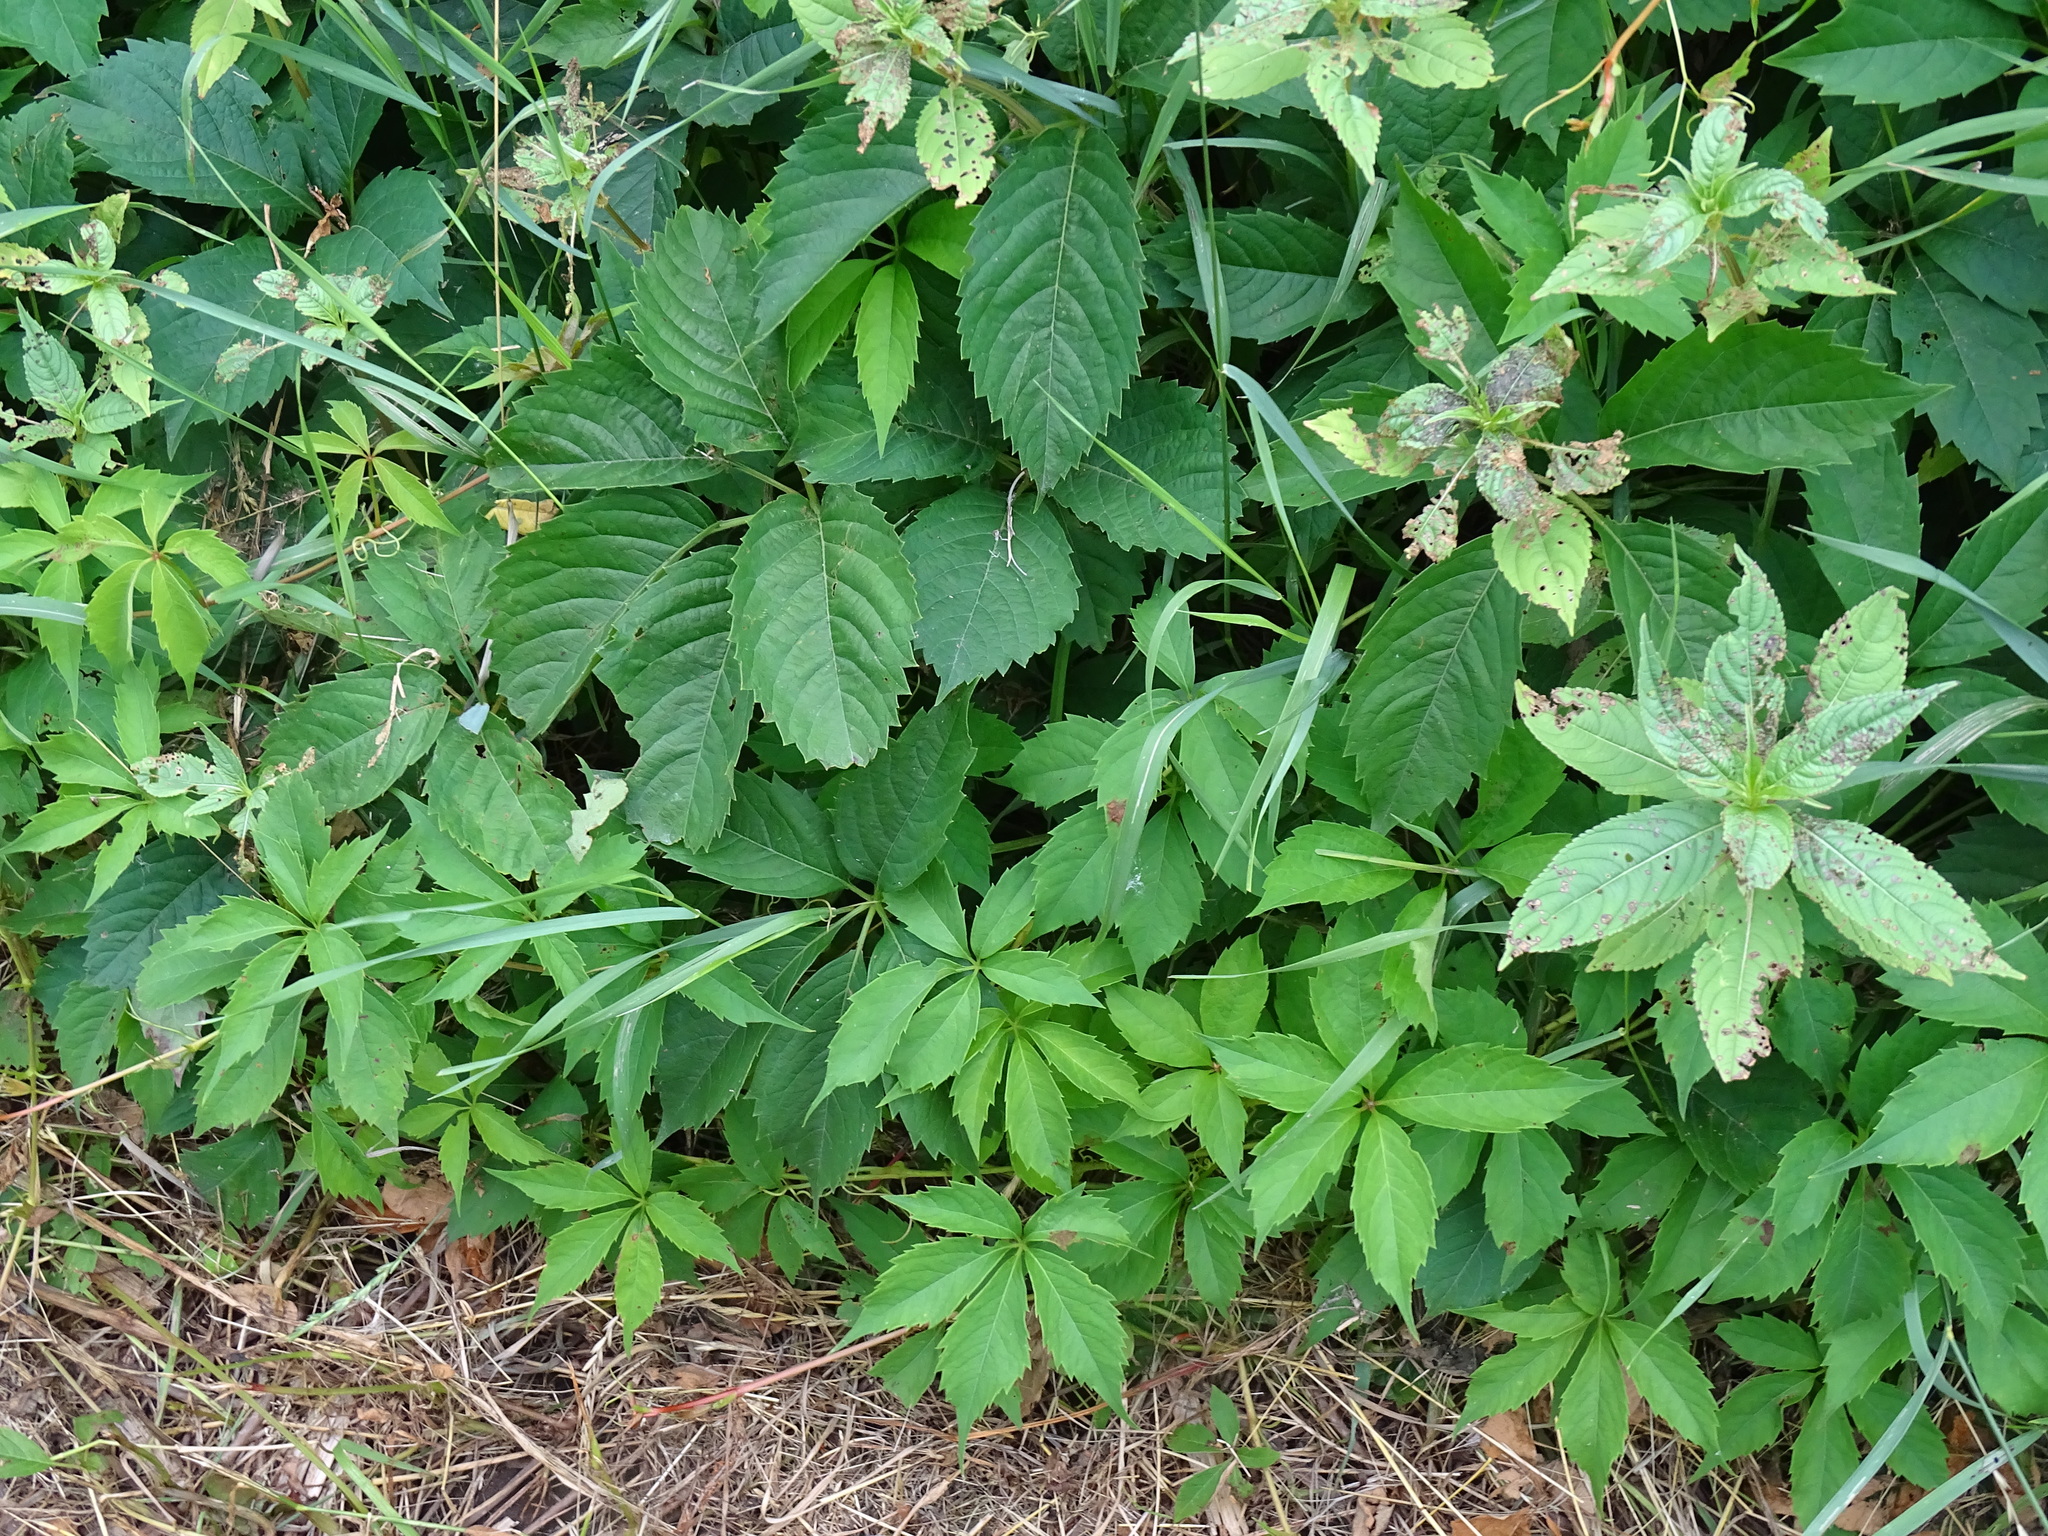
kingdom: Plantae
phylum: Tracheophyta
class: Magnoliopsida
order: Vitales
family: Vitaceae
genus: Parthenocissus
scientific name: Parthenocissus inserta
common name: False virginia-creeper
